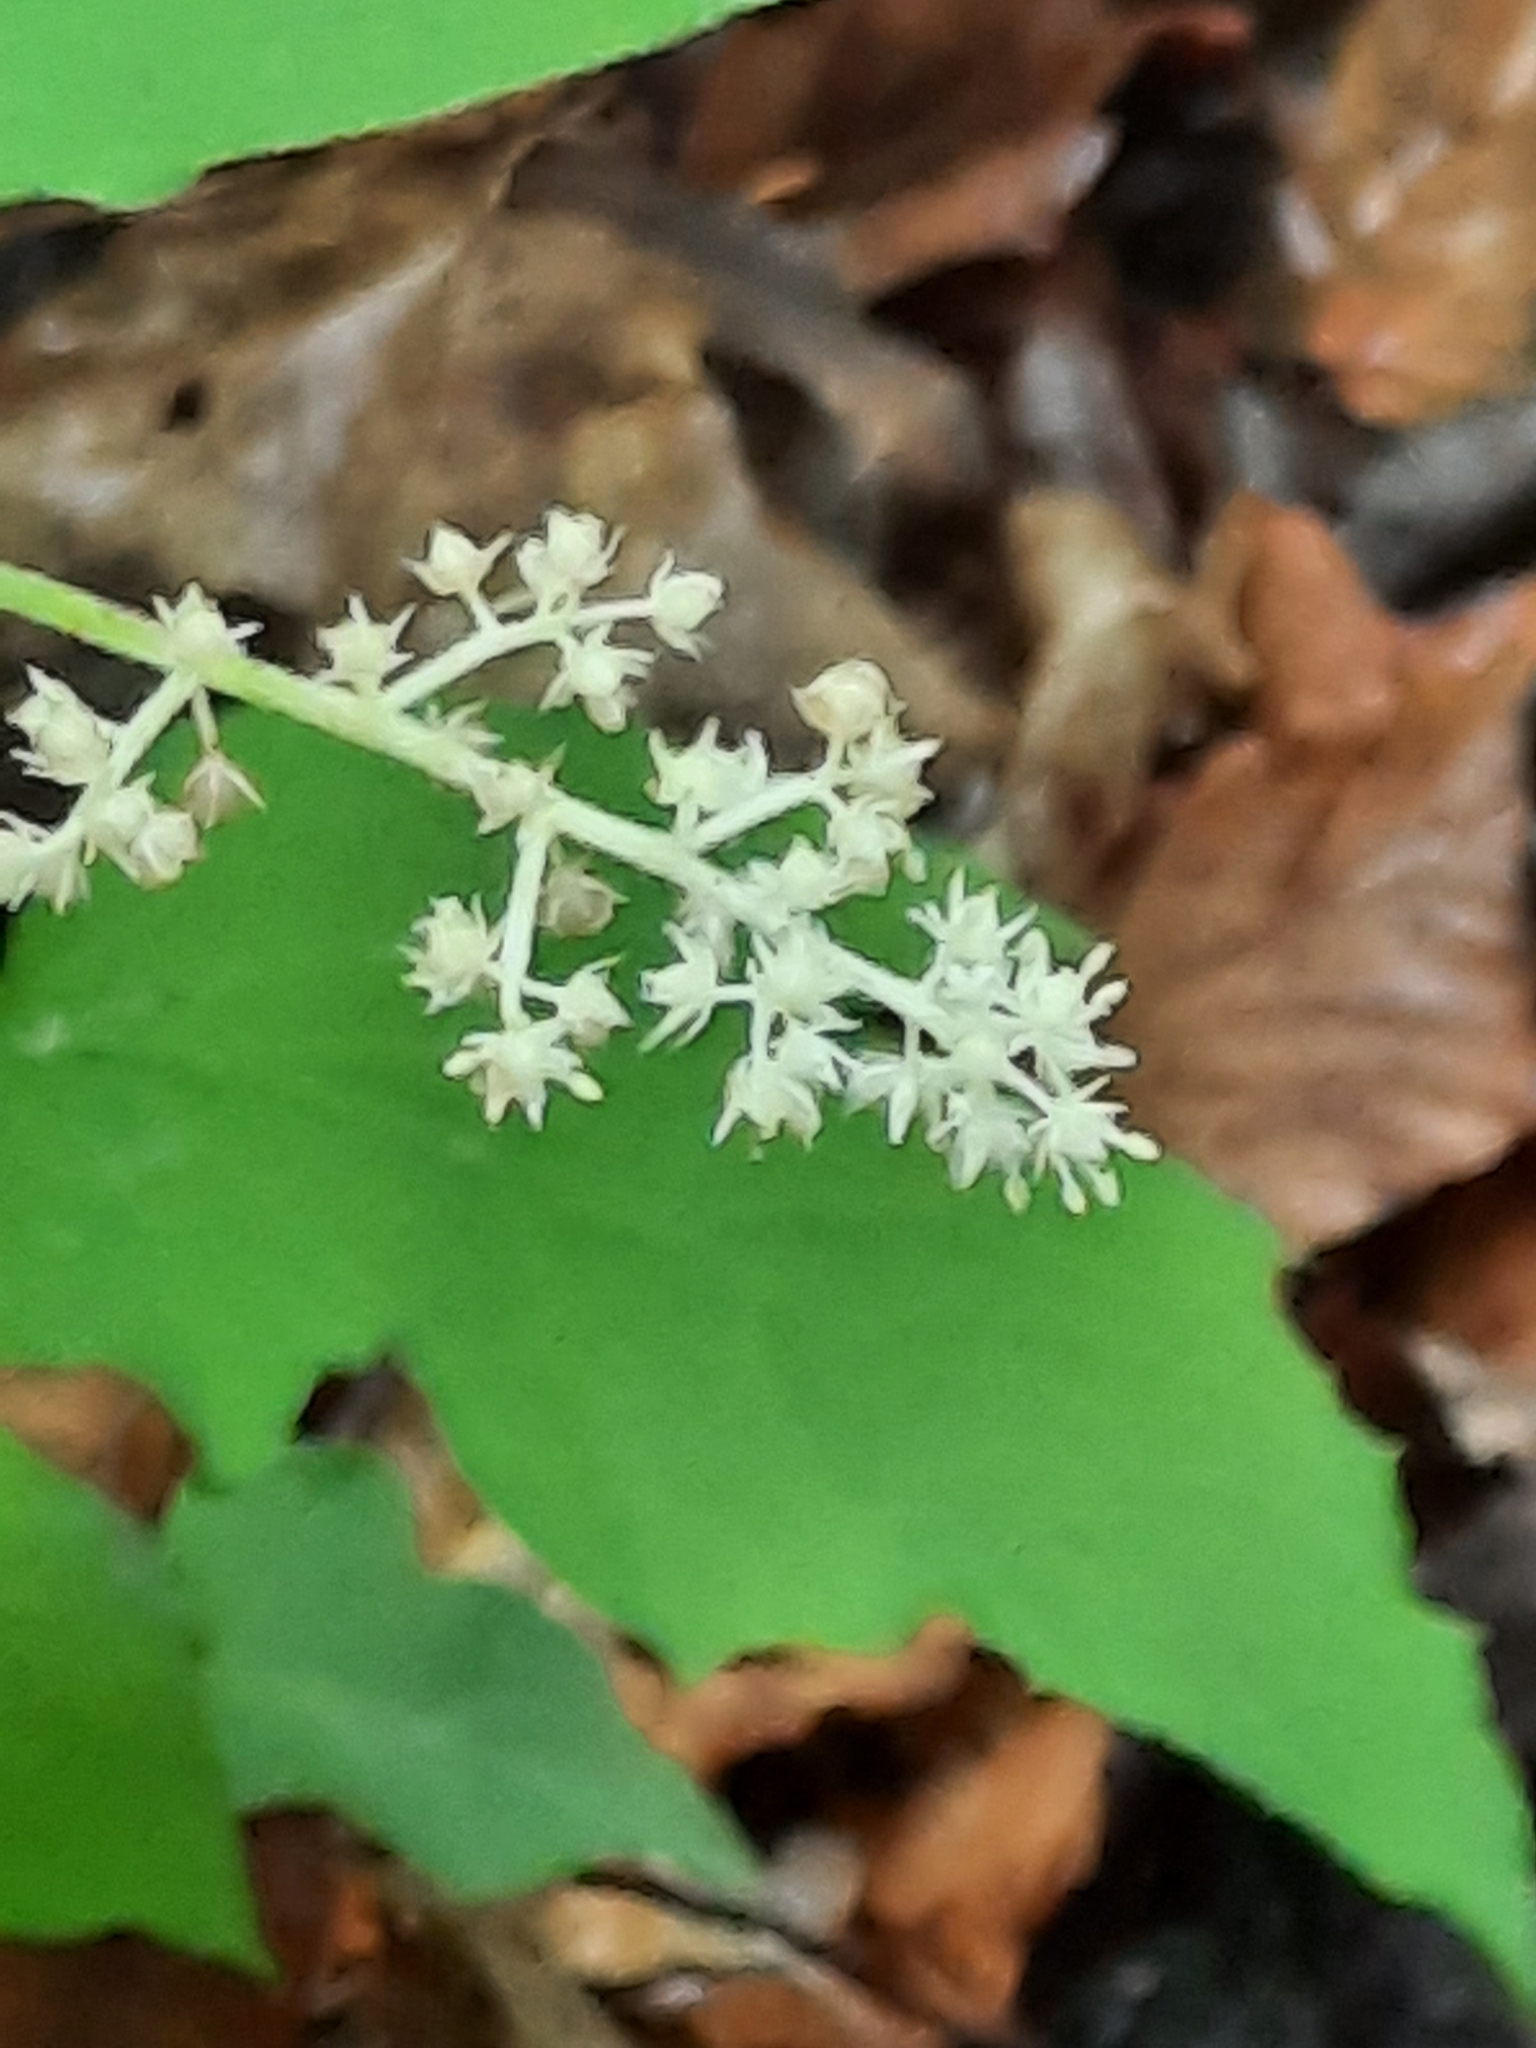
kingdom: Plantae
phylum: Tracheophyta
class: Liliopsida
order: Asparagales
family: Asparagaceae
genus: Maianthemum
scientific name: Maianthemum racemosum
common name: False spikenard
